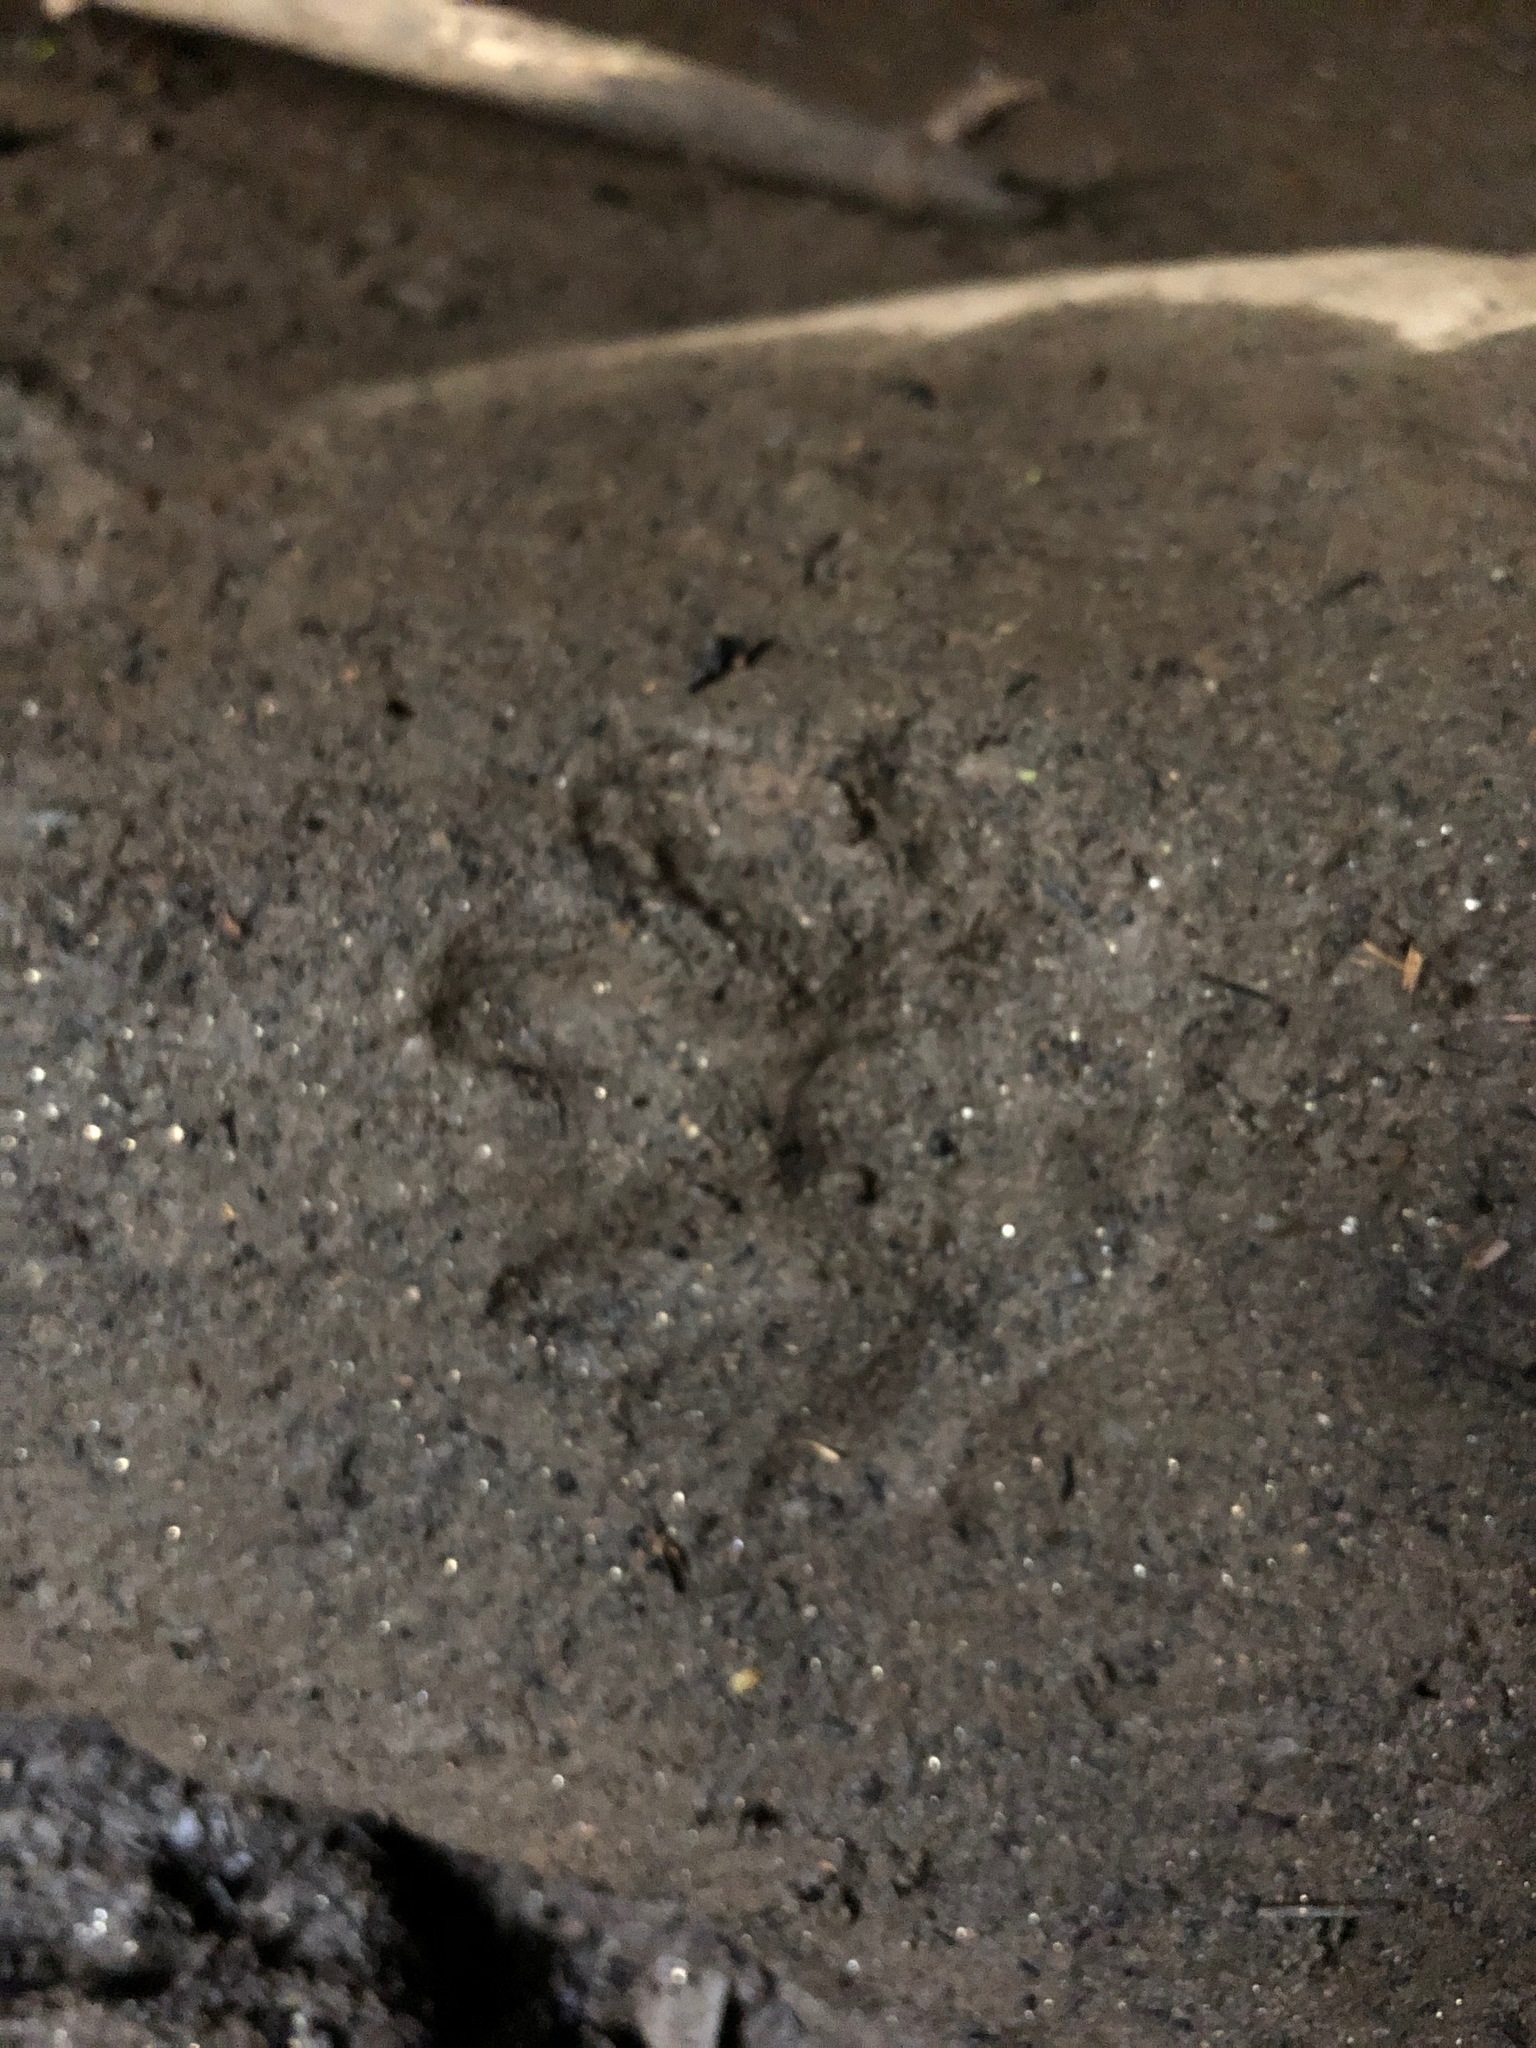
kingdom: Animalia
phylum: Chordata
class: Mammalia
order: Carnivora
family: Procyonidae
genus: Procyon
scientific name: Procyon lotor
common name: Raccoon
